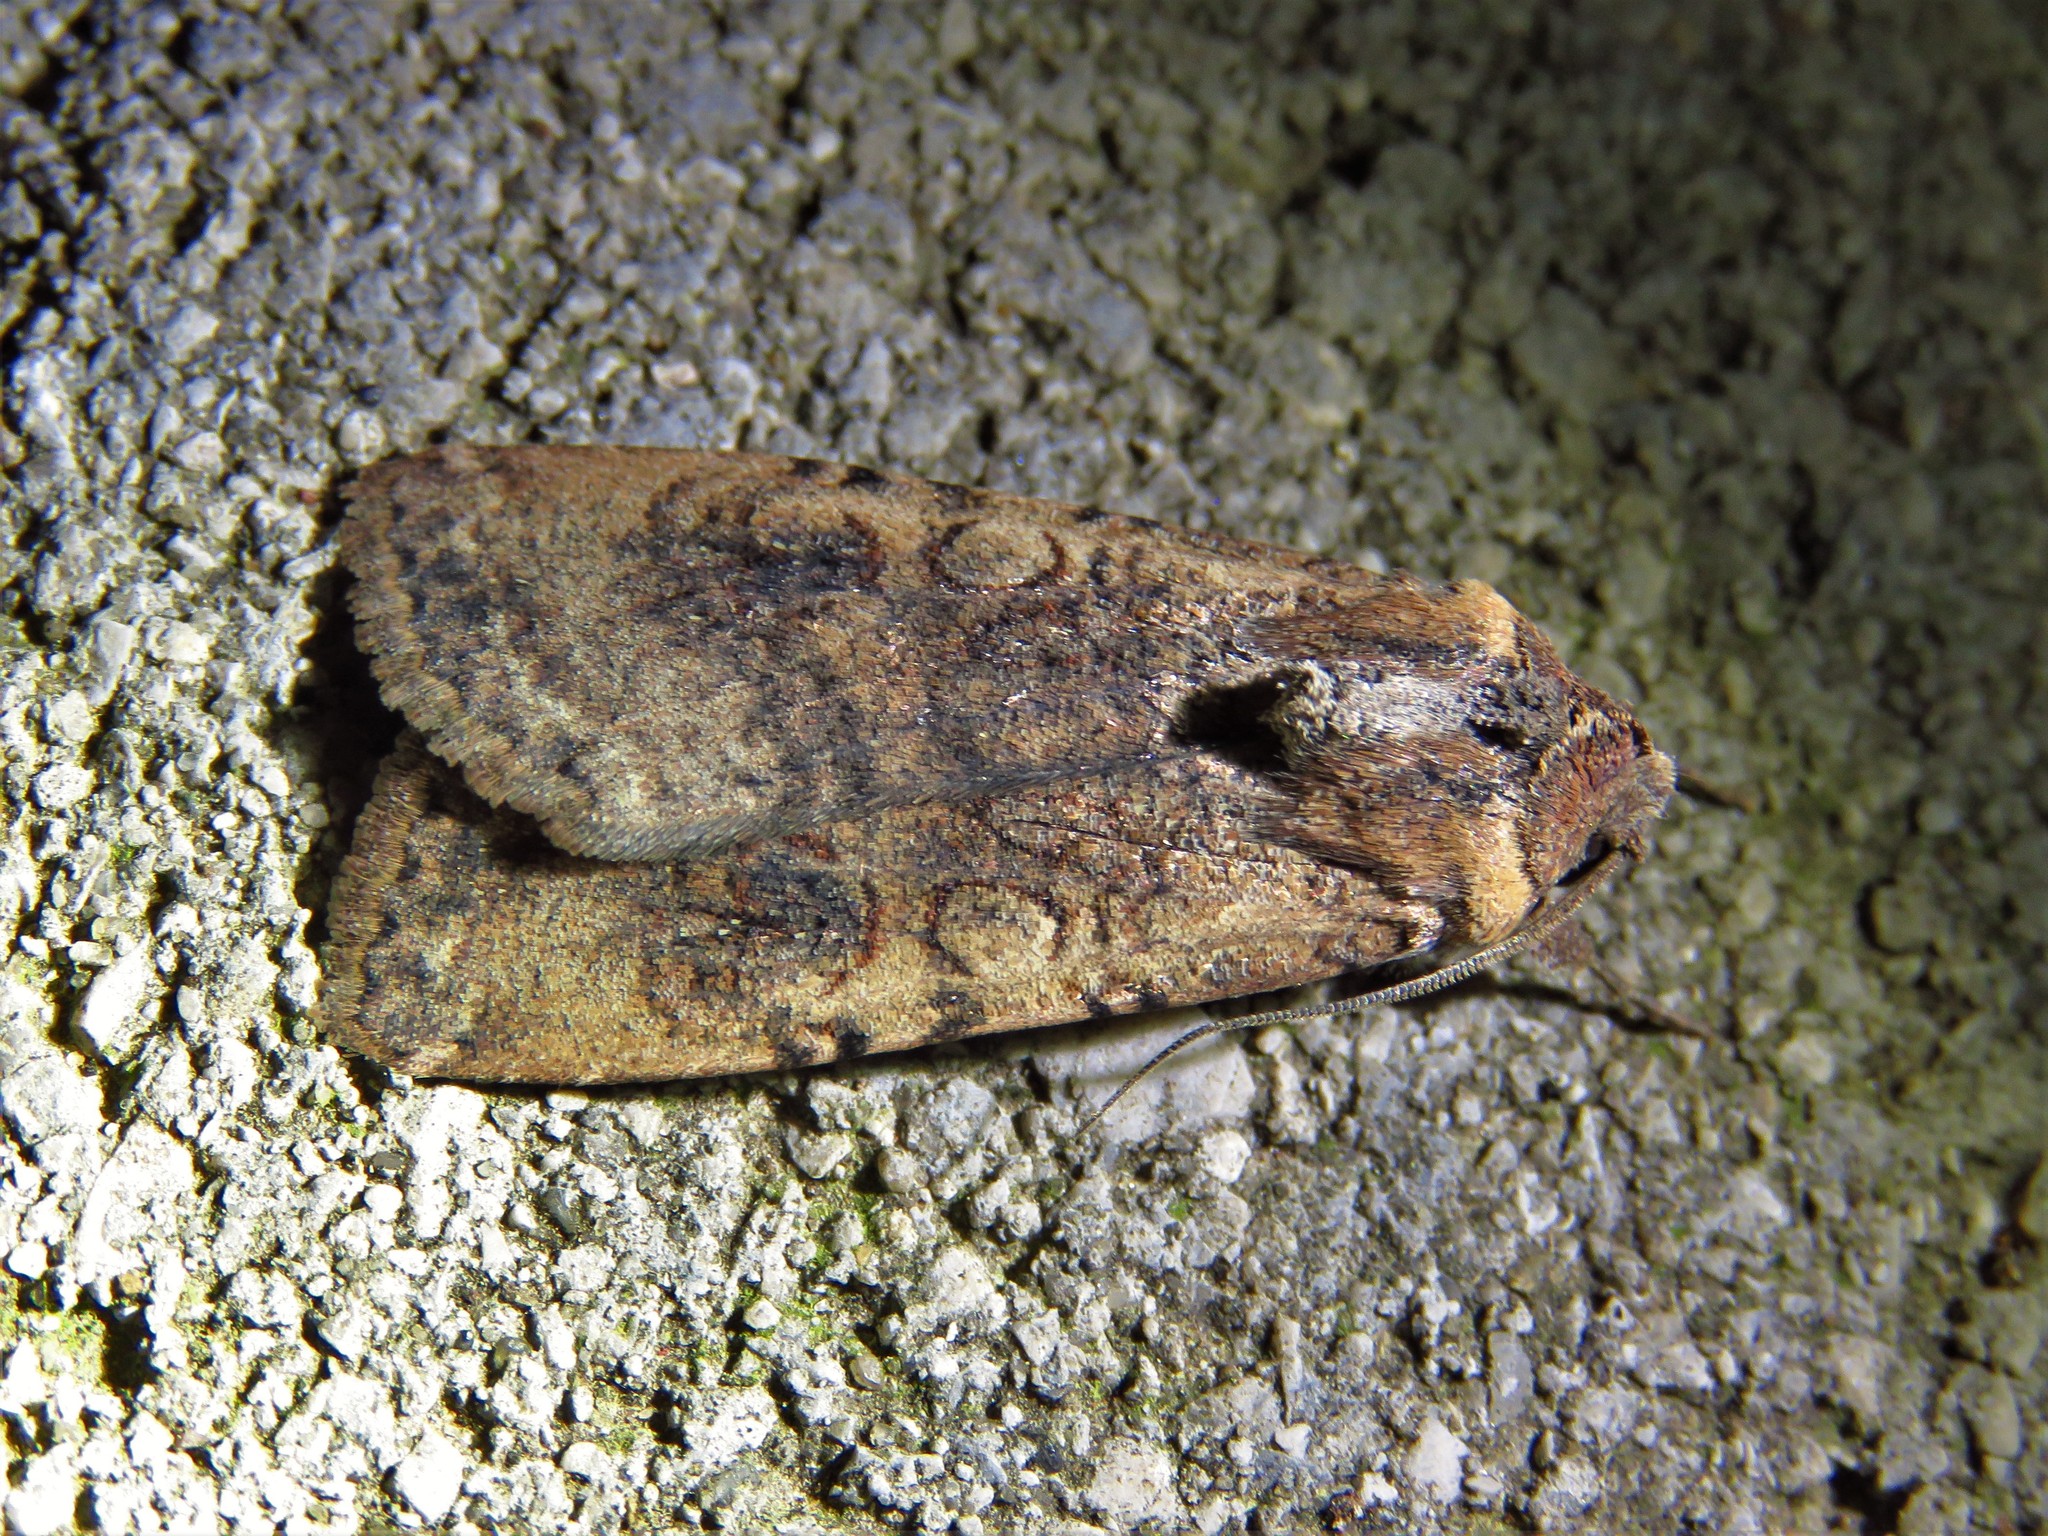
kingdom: Animalia
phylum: Arthropoda
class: Insecta
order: Lepidoptera
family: Noctuidae
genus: Peridroma
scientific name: Peridroma saucia
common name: Pearly underwing
